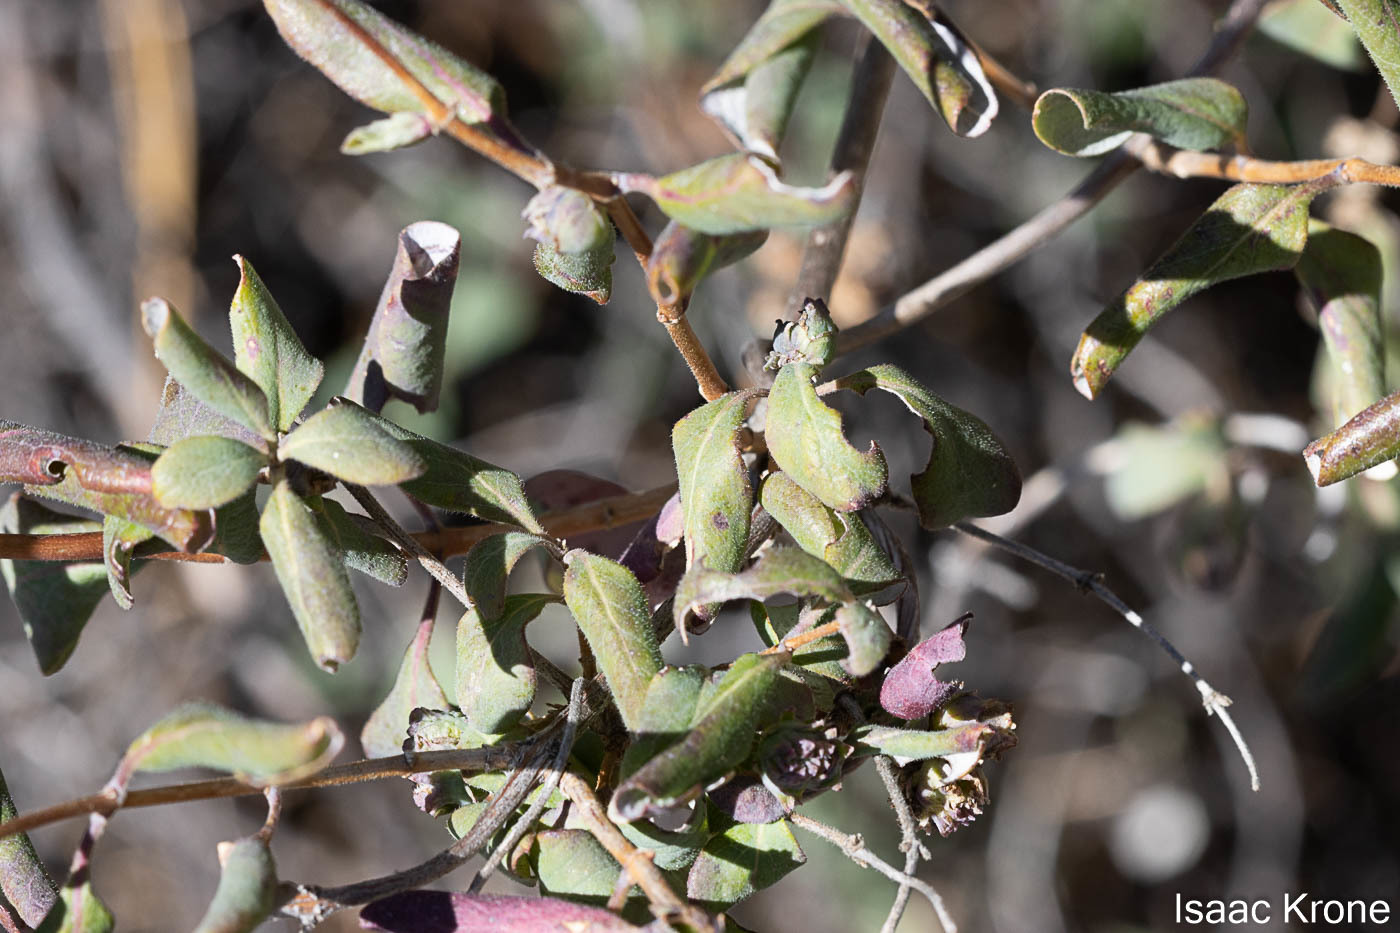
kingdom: Plantae
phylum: Tracheophyta
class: Magnoliopsida
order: Dipsacales
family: Caprifoliaceae
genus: Lonicera
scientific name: Lonicera subspicata
